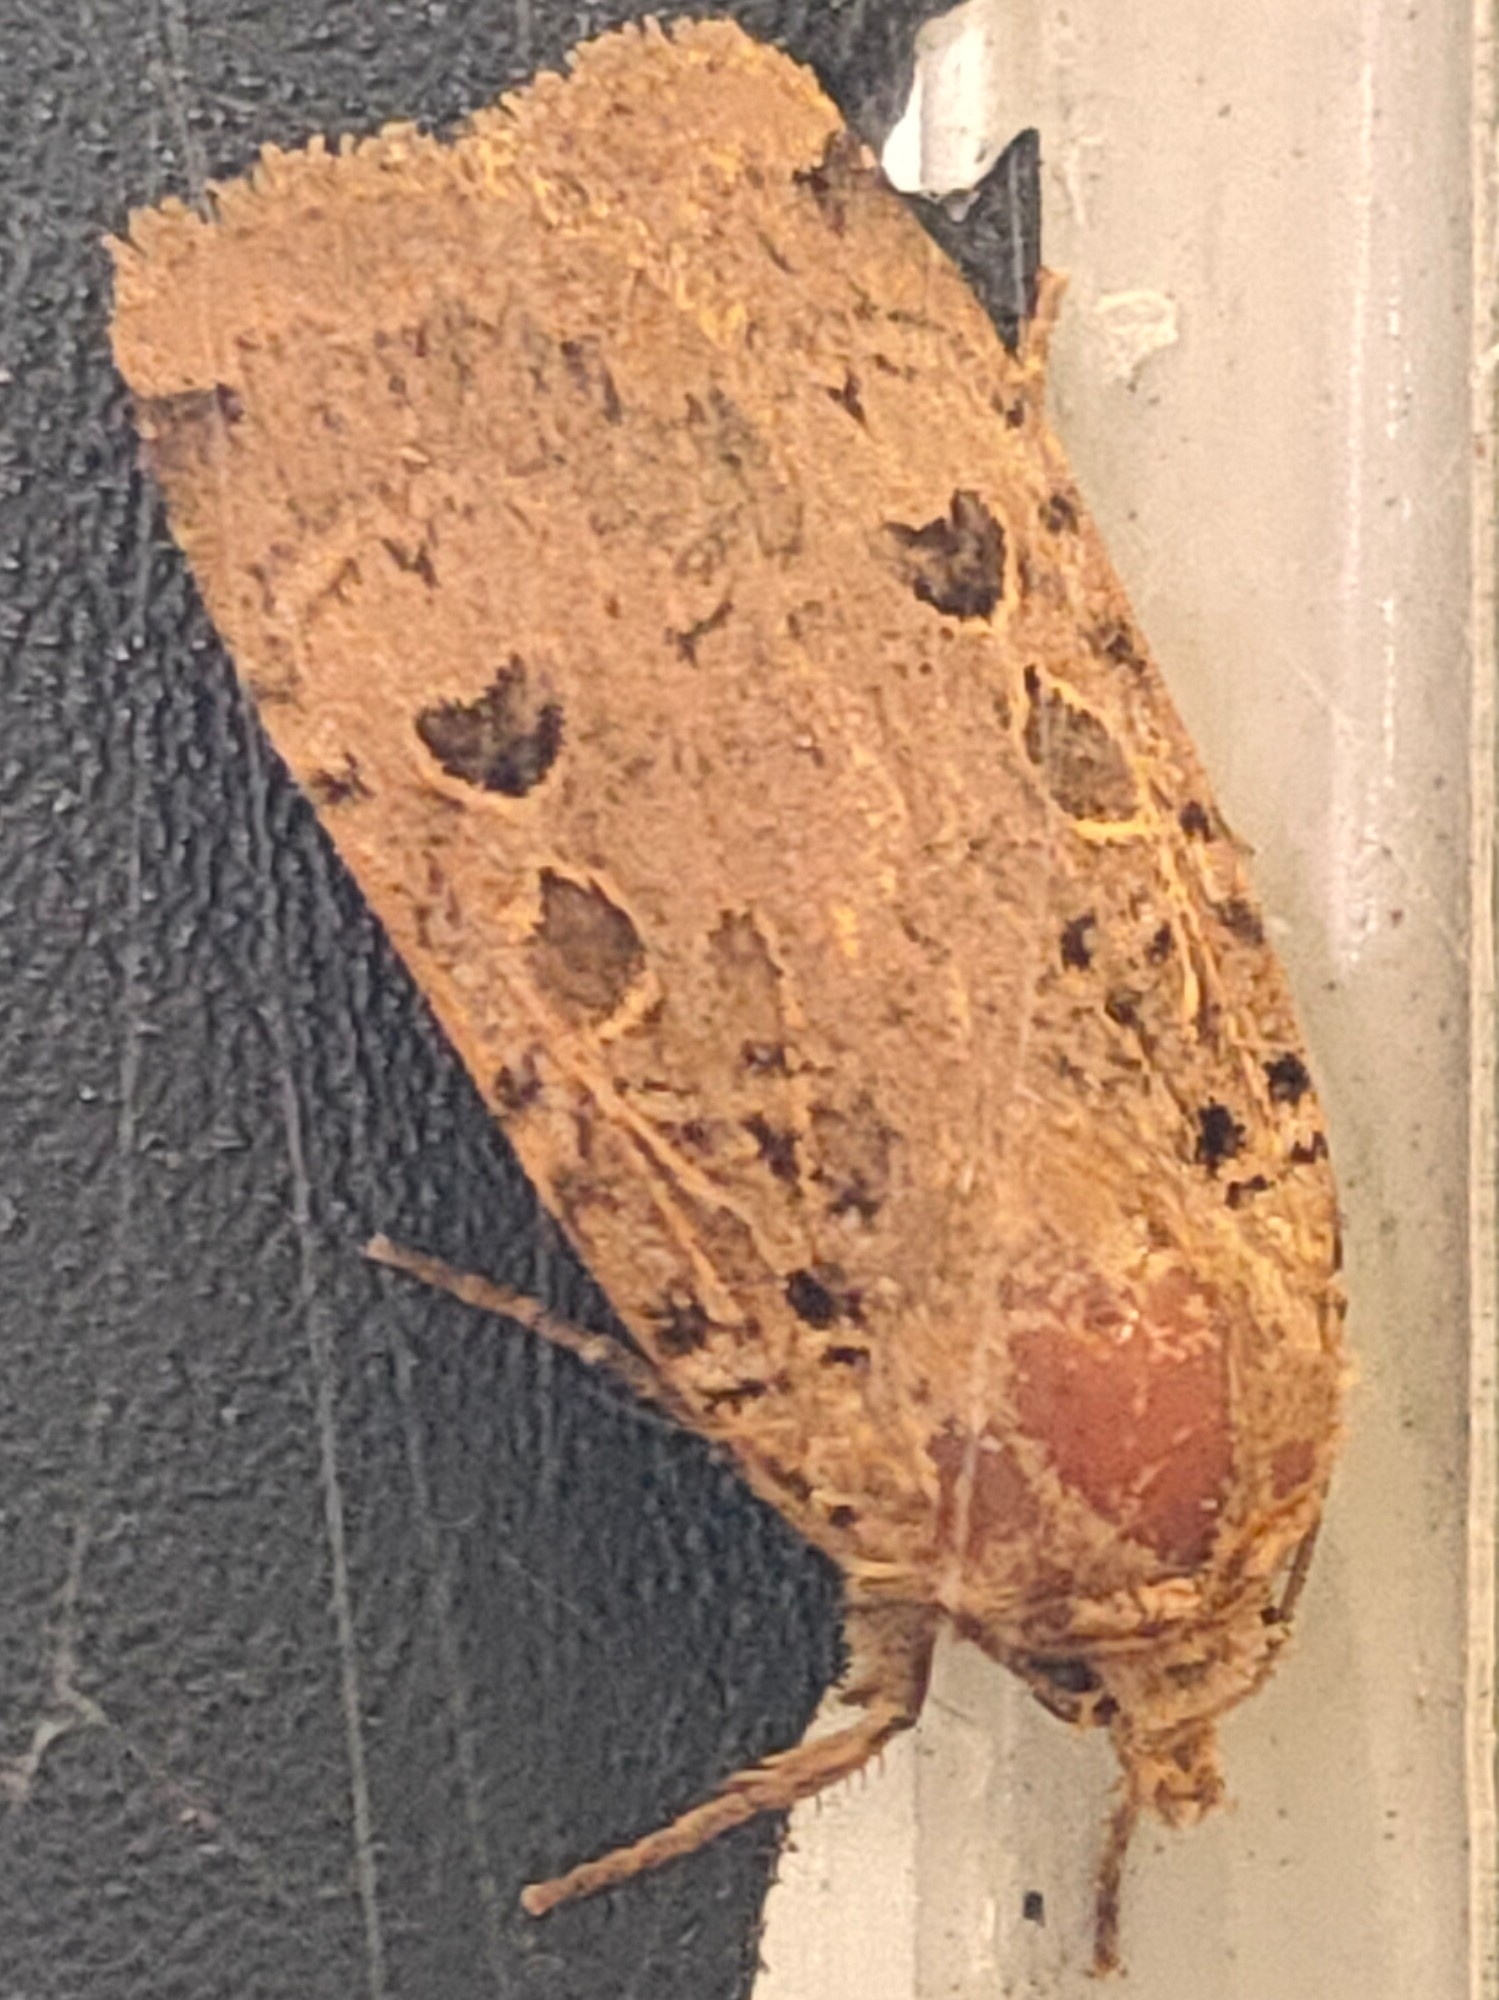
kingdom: Animalia
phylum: Arthropoda
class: Insecta
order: Lepidoptera
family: Noctuidae
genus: Hermonassa
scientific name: Hermonassa cecilia
